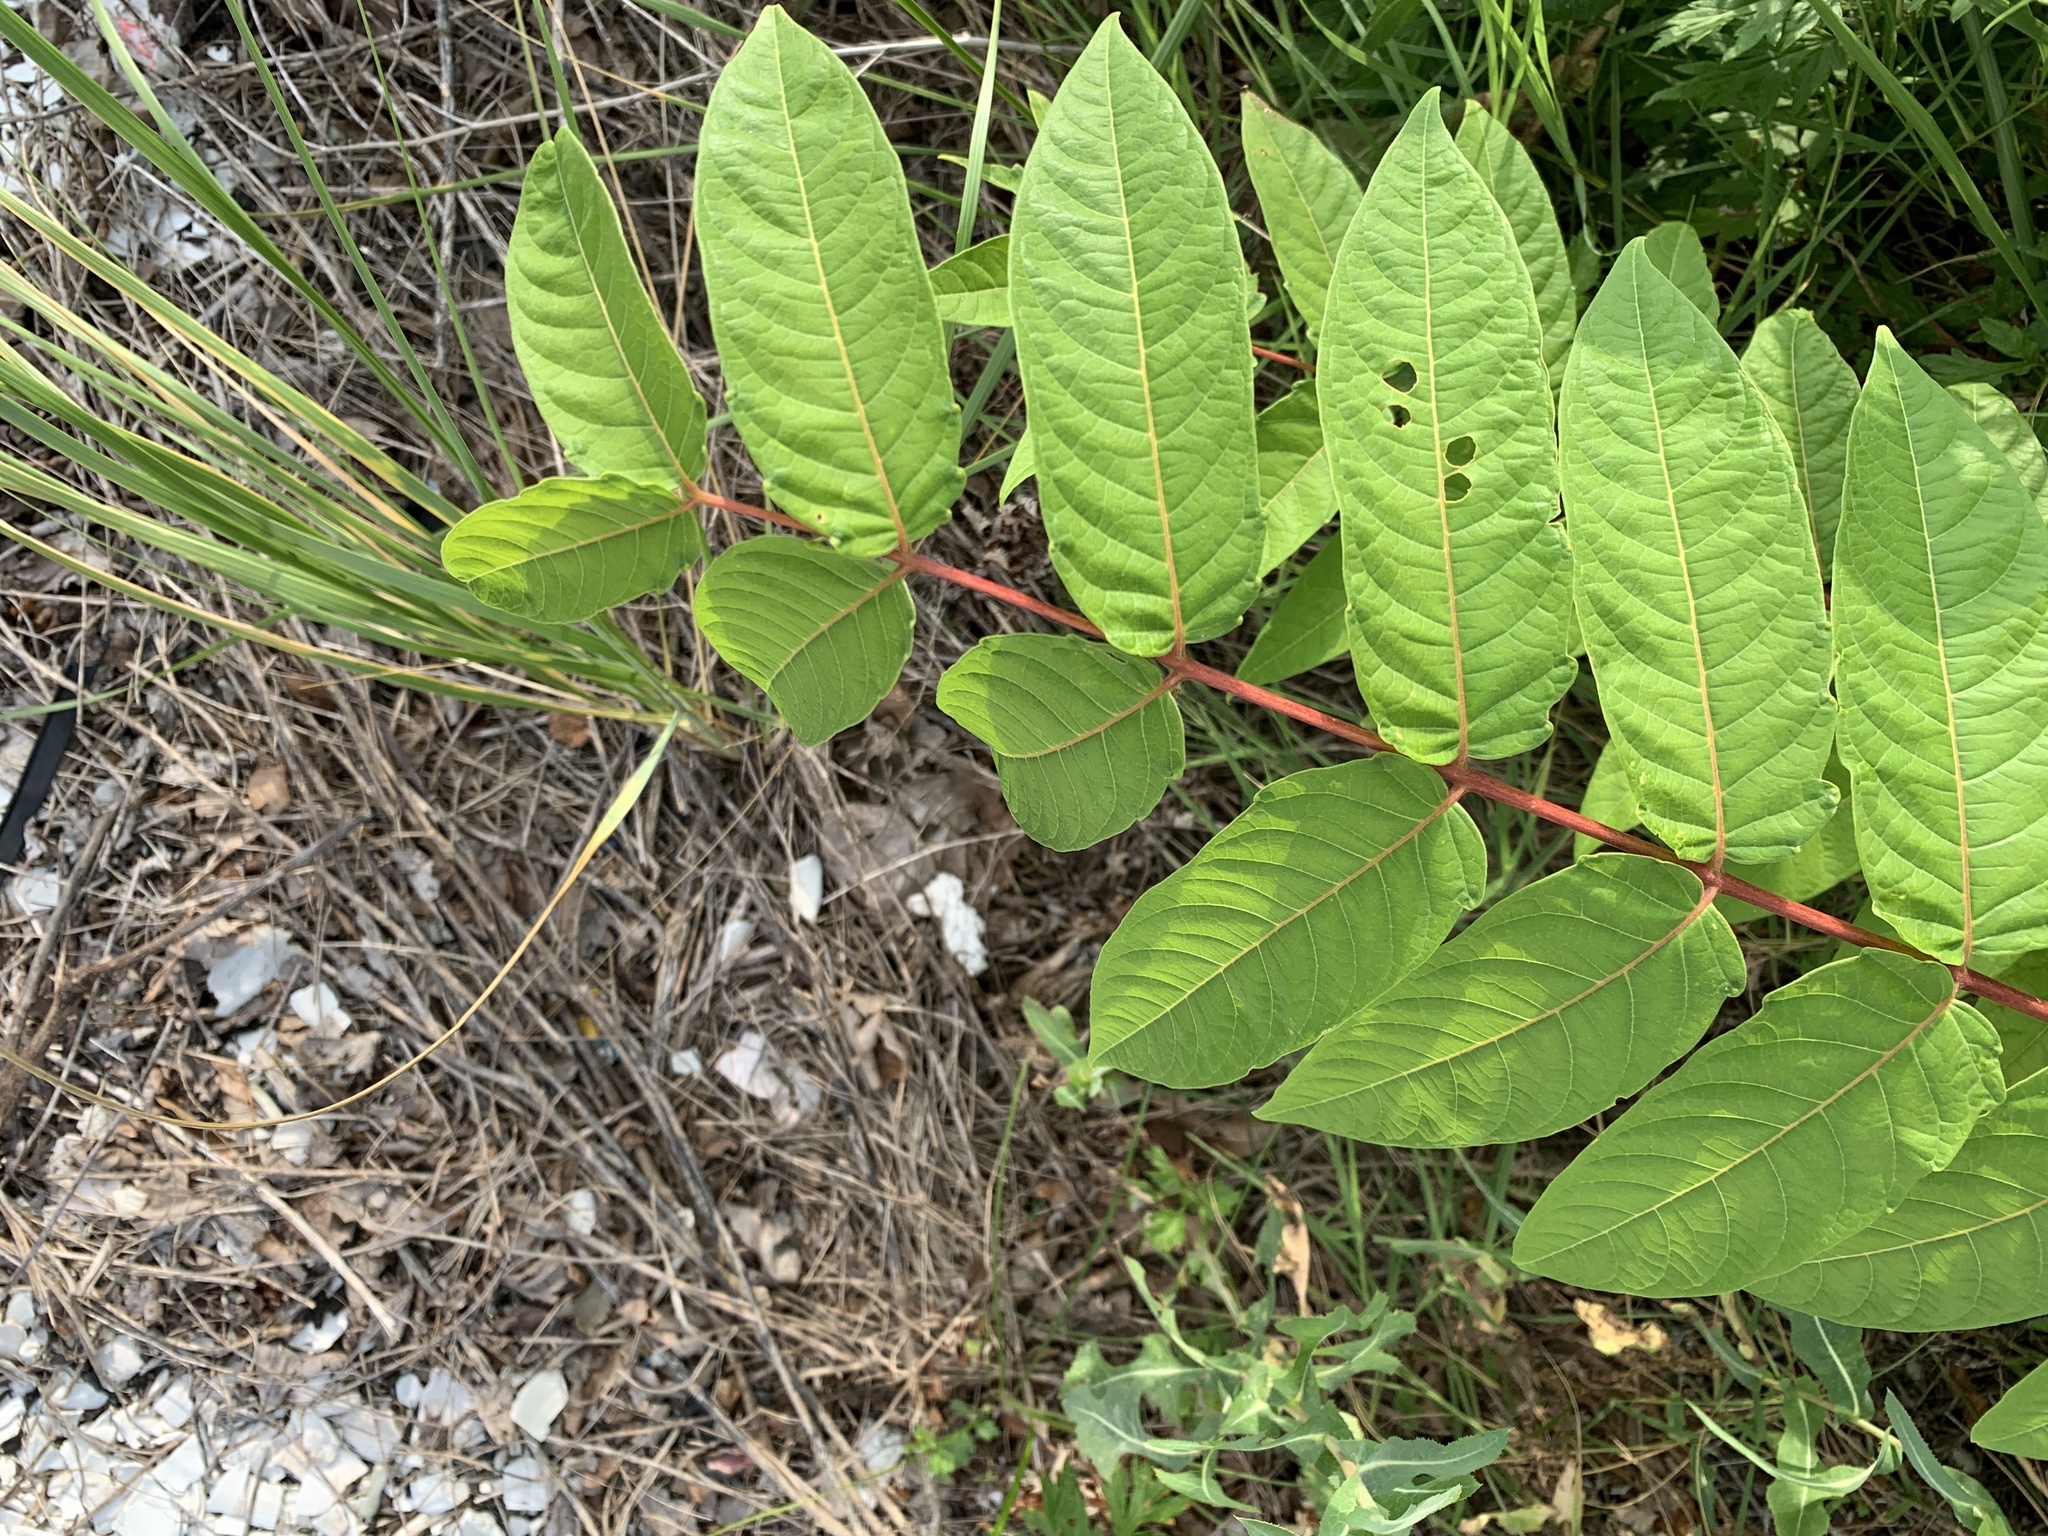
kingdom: Plantae
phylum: Tracheophyta
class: Magnoliopsida
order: Sapindales
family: Simaroubaceae
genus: Ailanthus
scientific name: Ailanthus altissima
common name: Tree-of-heaven
